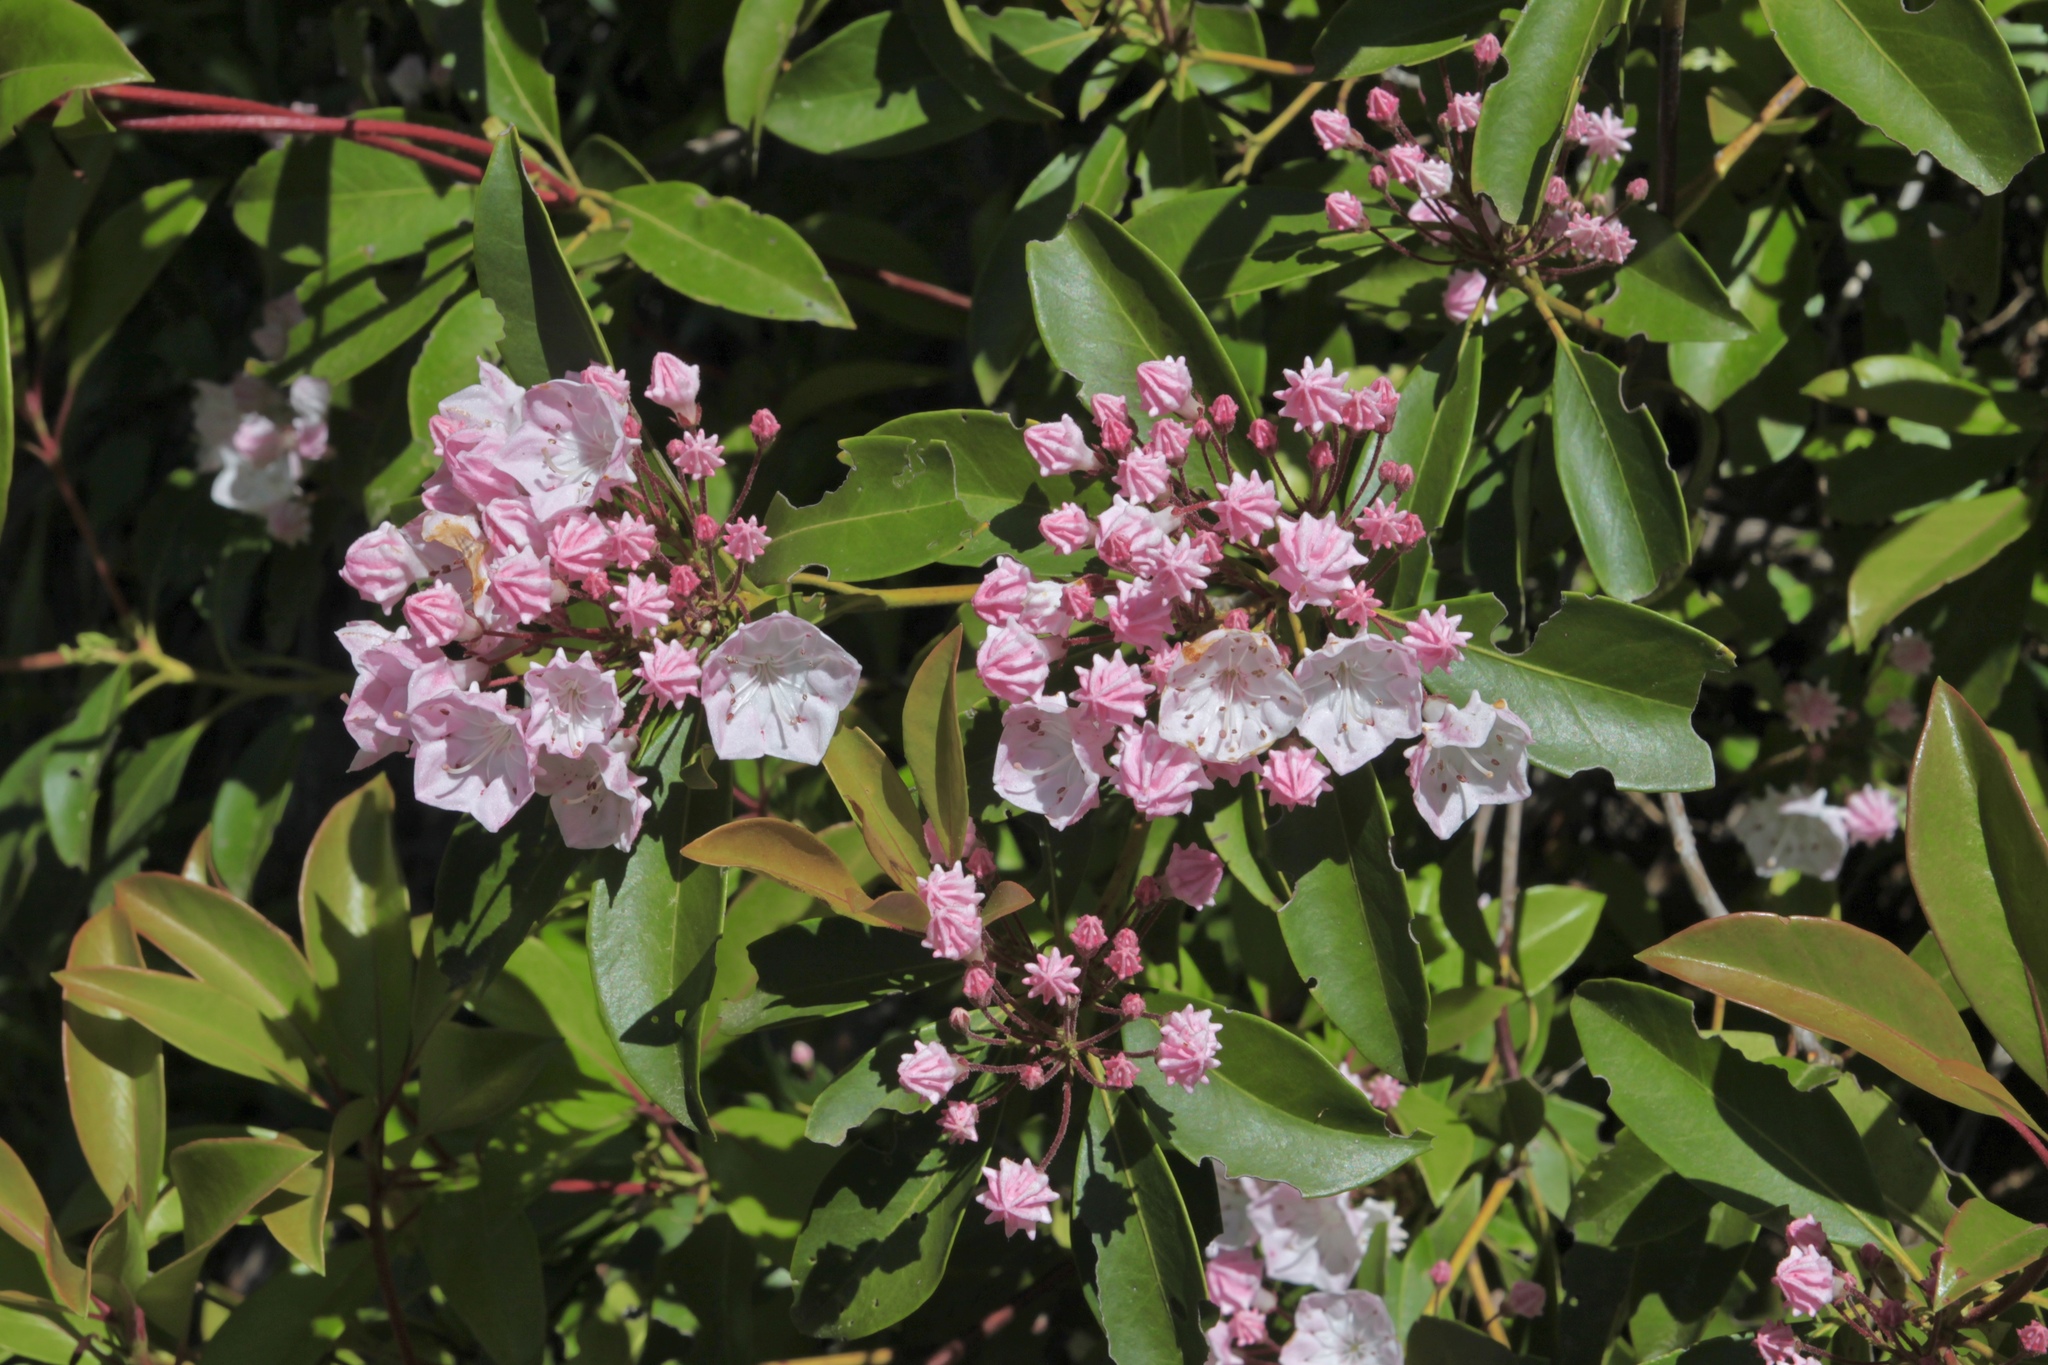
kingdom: Plantae
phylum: Tracheophyta
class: Magnoliopsida
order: Ericales
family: Ericaceae
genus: Kalmia
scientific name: Kalmia latifolia
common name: Mountain-laurel
